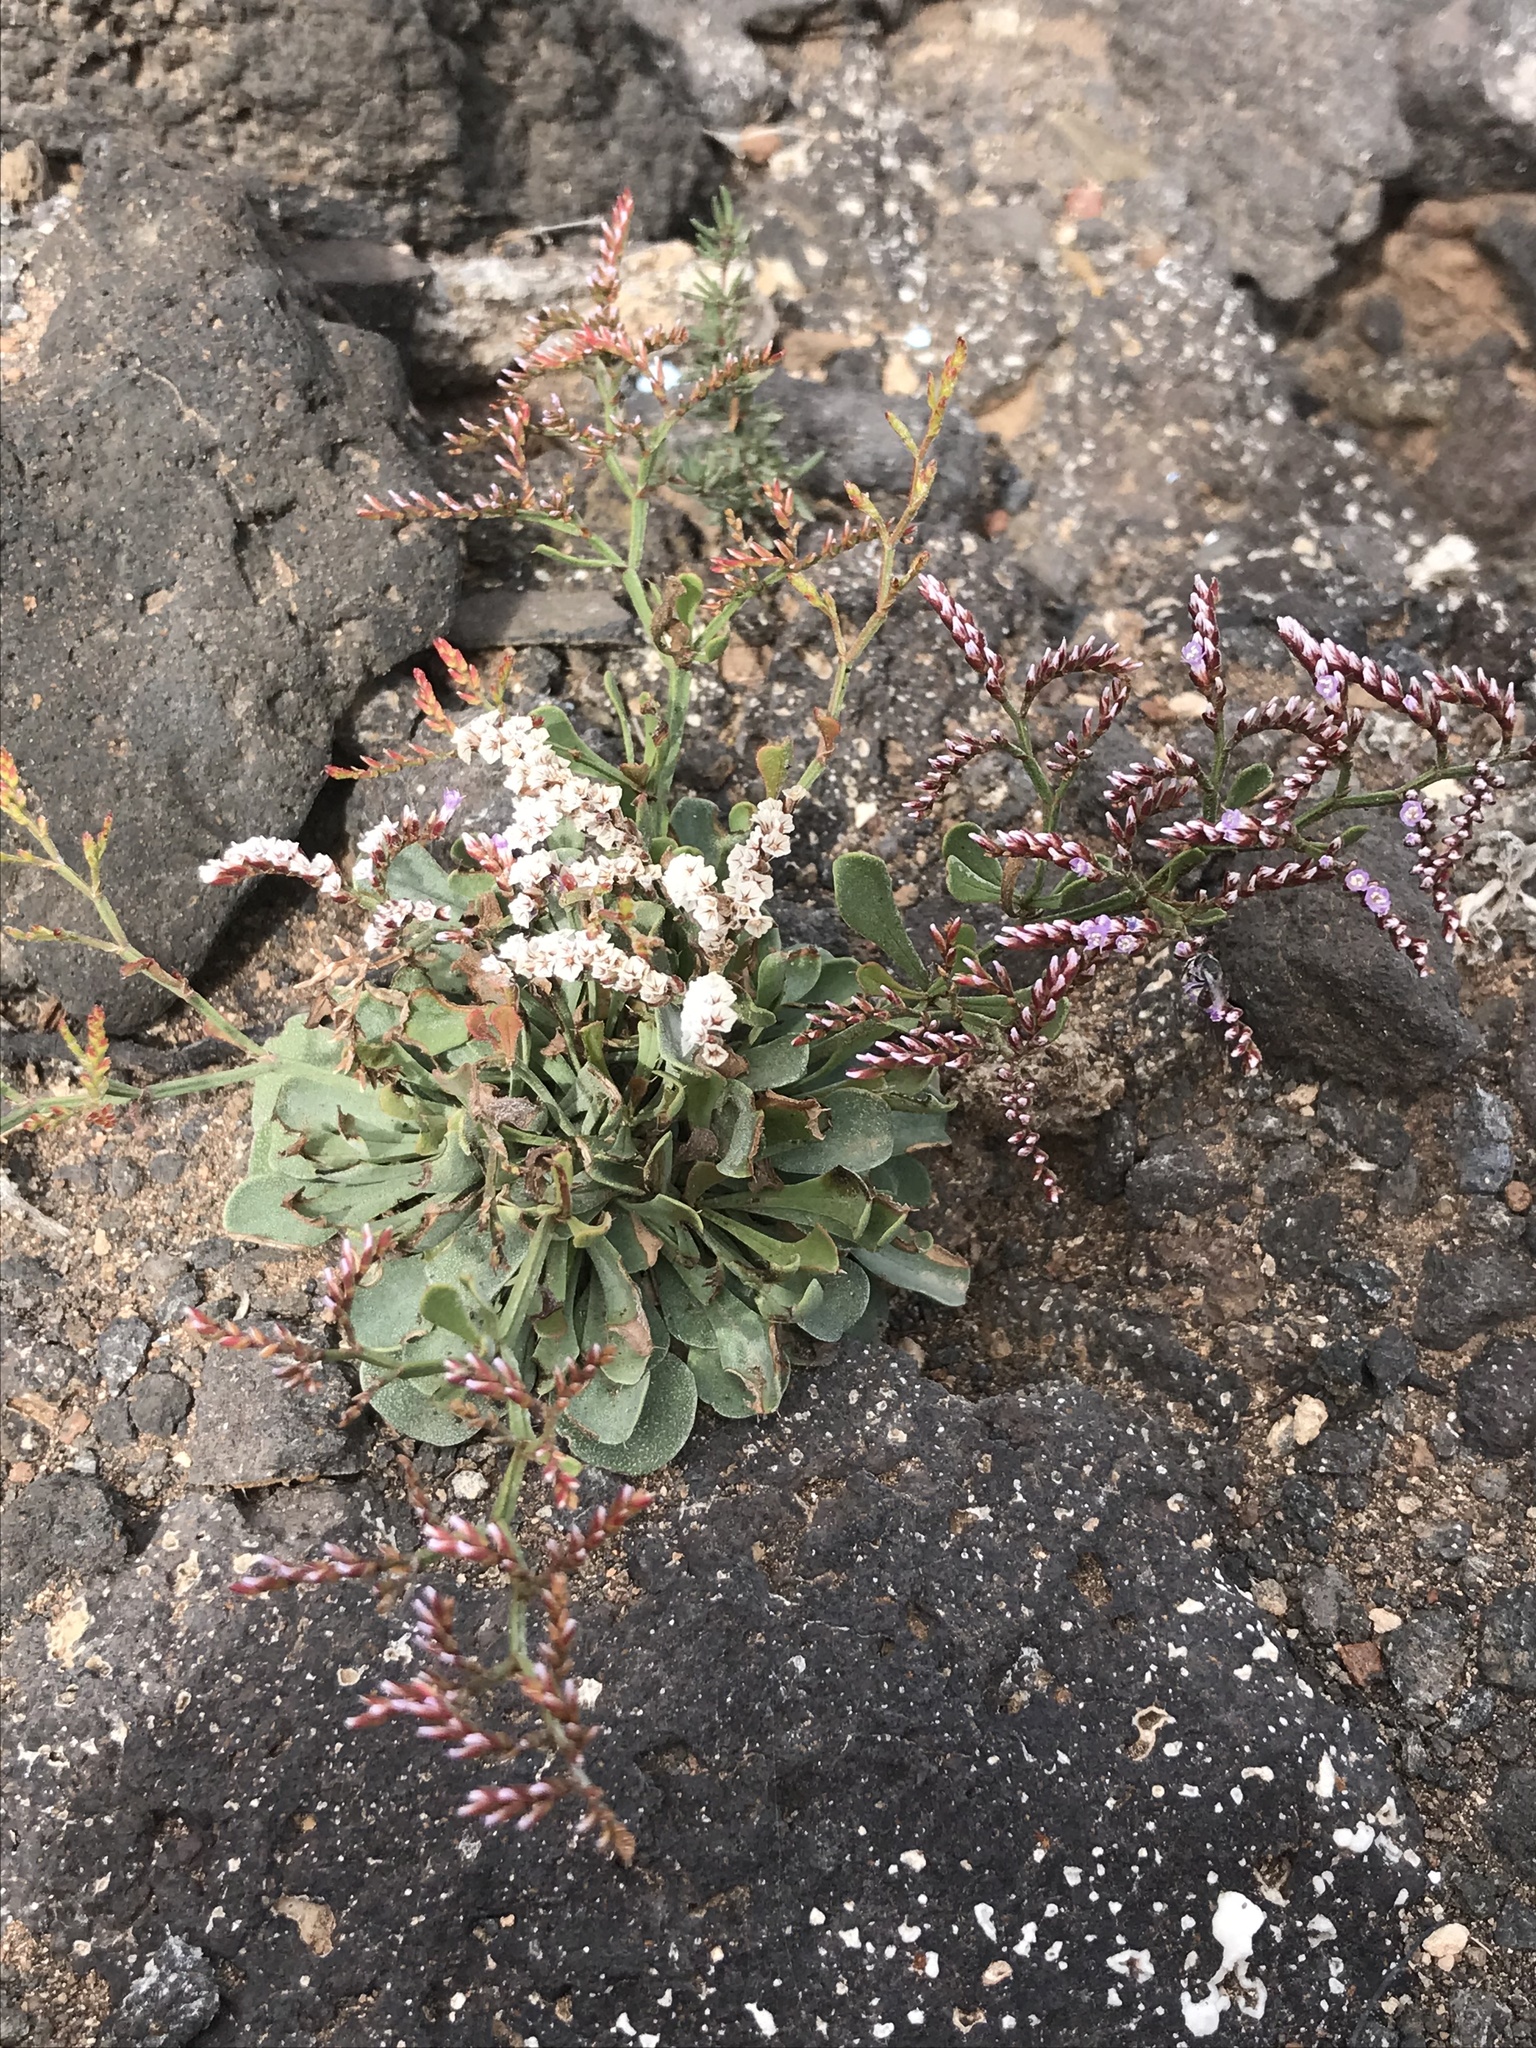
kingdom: Plantae
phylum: Tracheophyta
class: Magnoliopsida
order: Caryophyllales
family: Plumbaginaceae
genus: Limonium
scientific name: Limonium pectinatum
